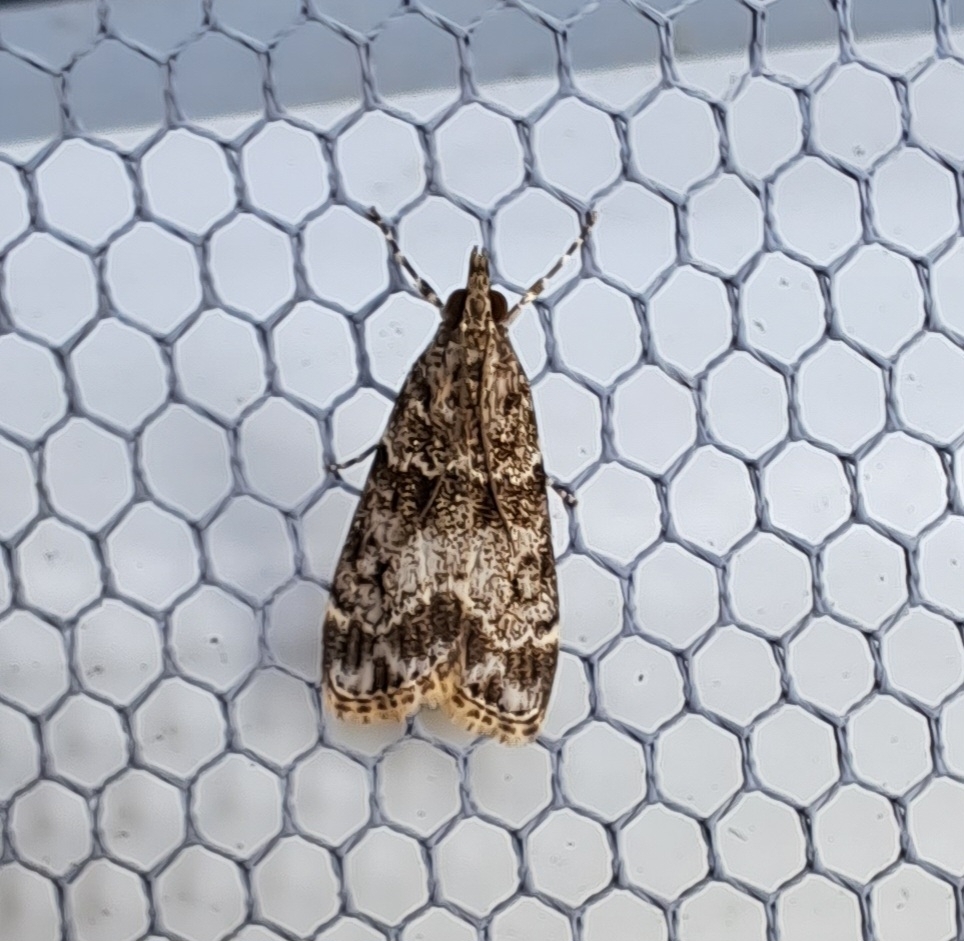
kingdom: Animalia
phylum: Arthropoda
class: Insecta
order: Lepidoptera
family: Crambidae
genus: Eudonia
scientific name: Eudonia mercurella
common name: Small grey
